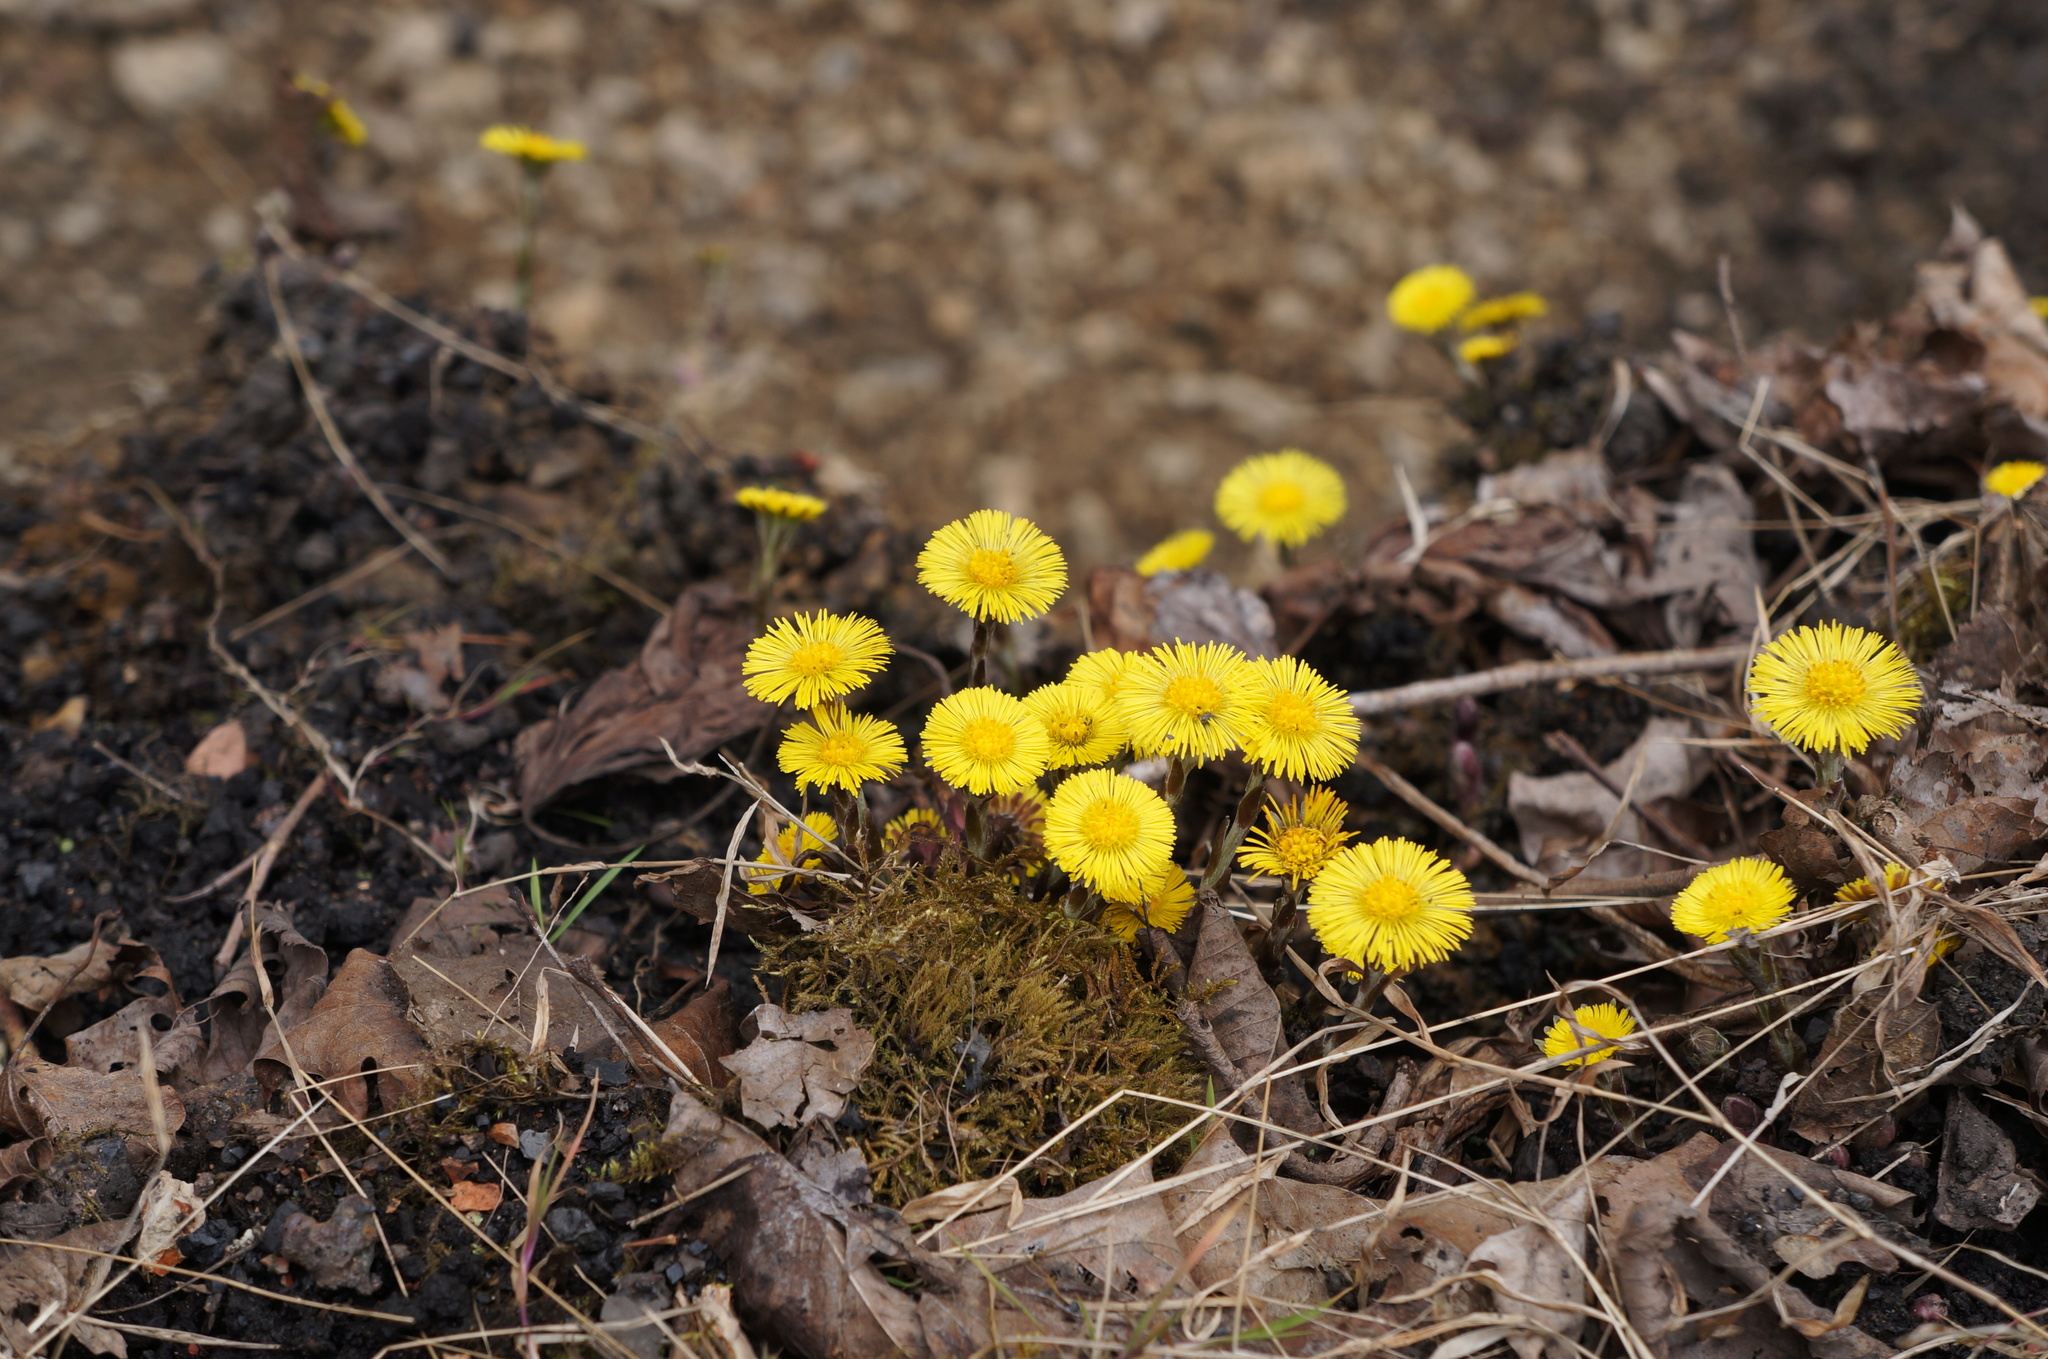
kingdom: Plantae
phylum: Tracheophyta
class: Magnoliopsida
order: Asterales
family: Asteraceae
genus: Tussilago
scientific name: Tussilago farfara
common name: Coltsfoot
